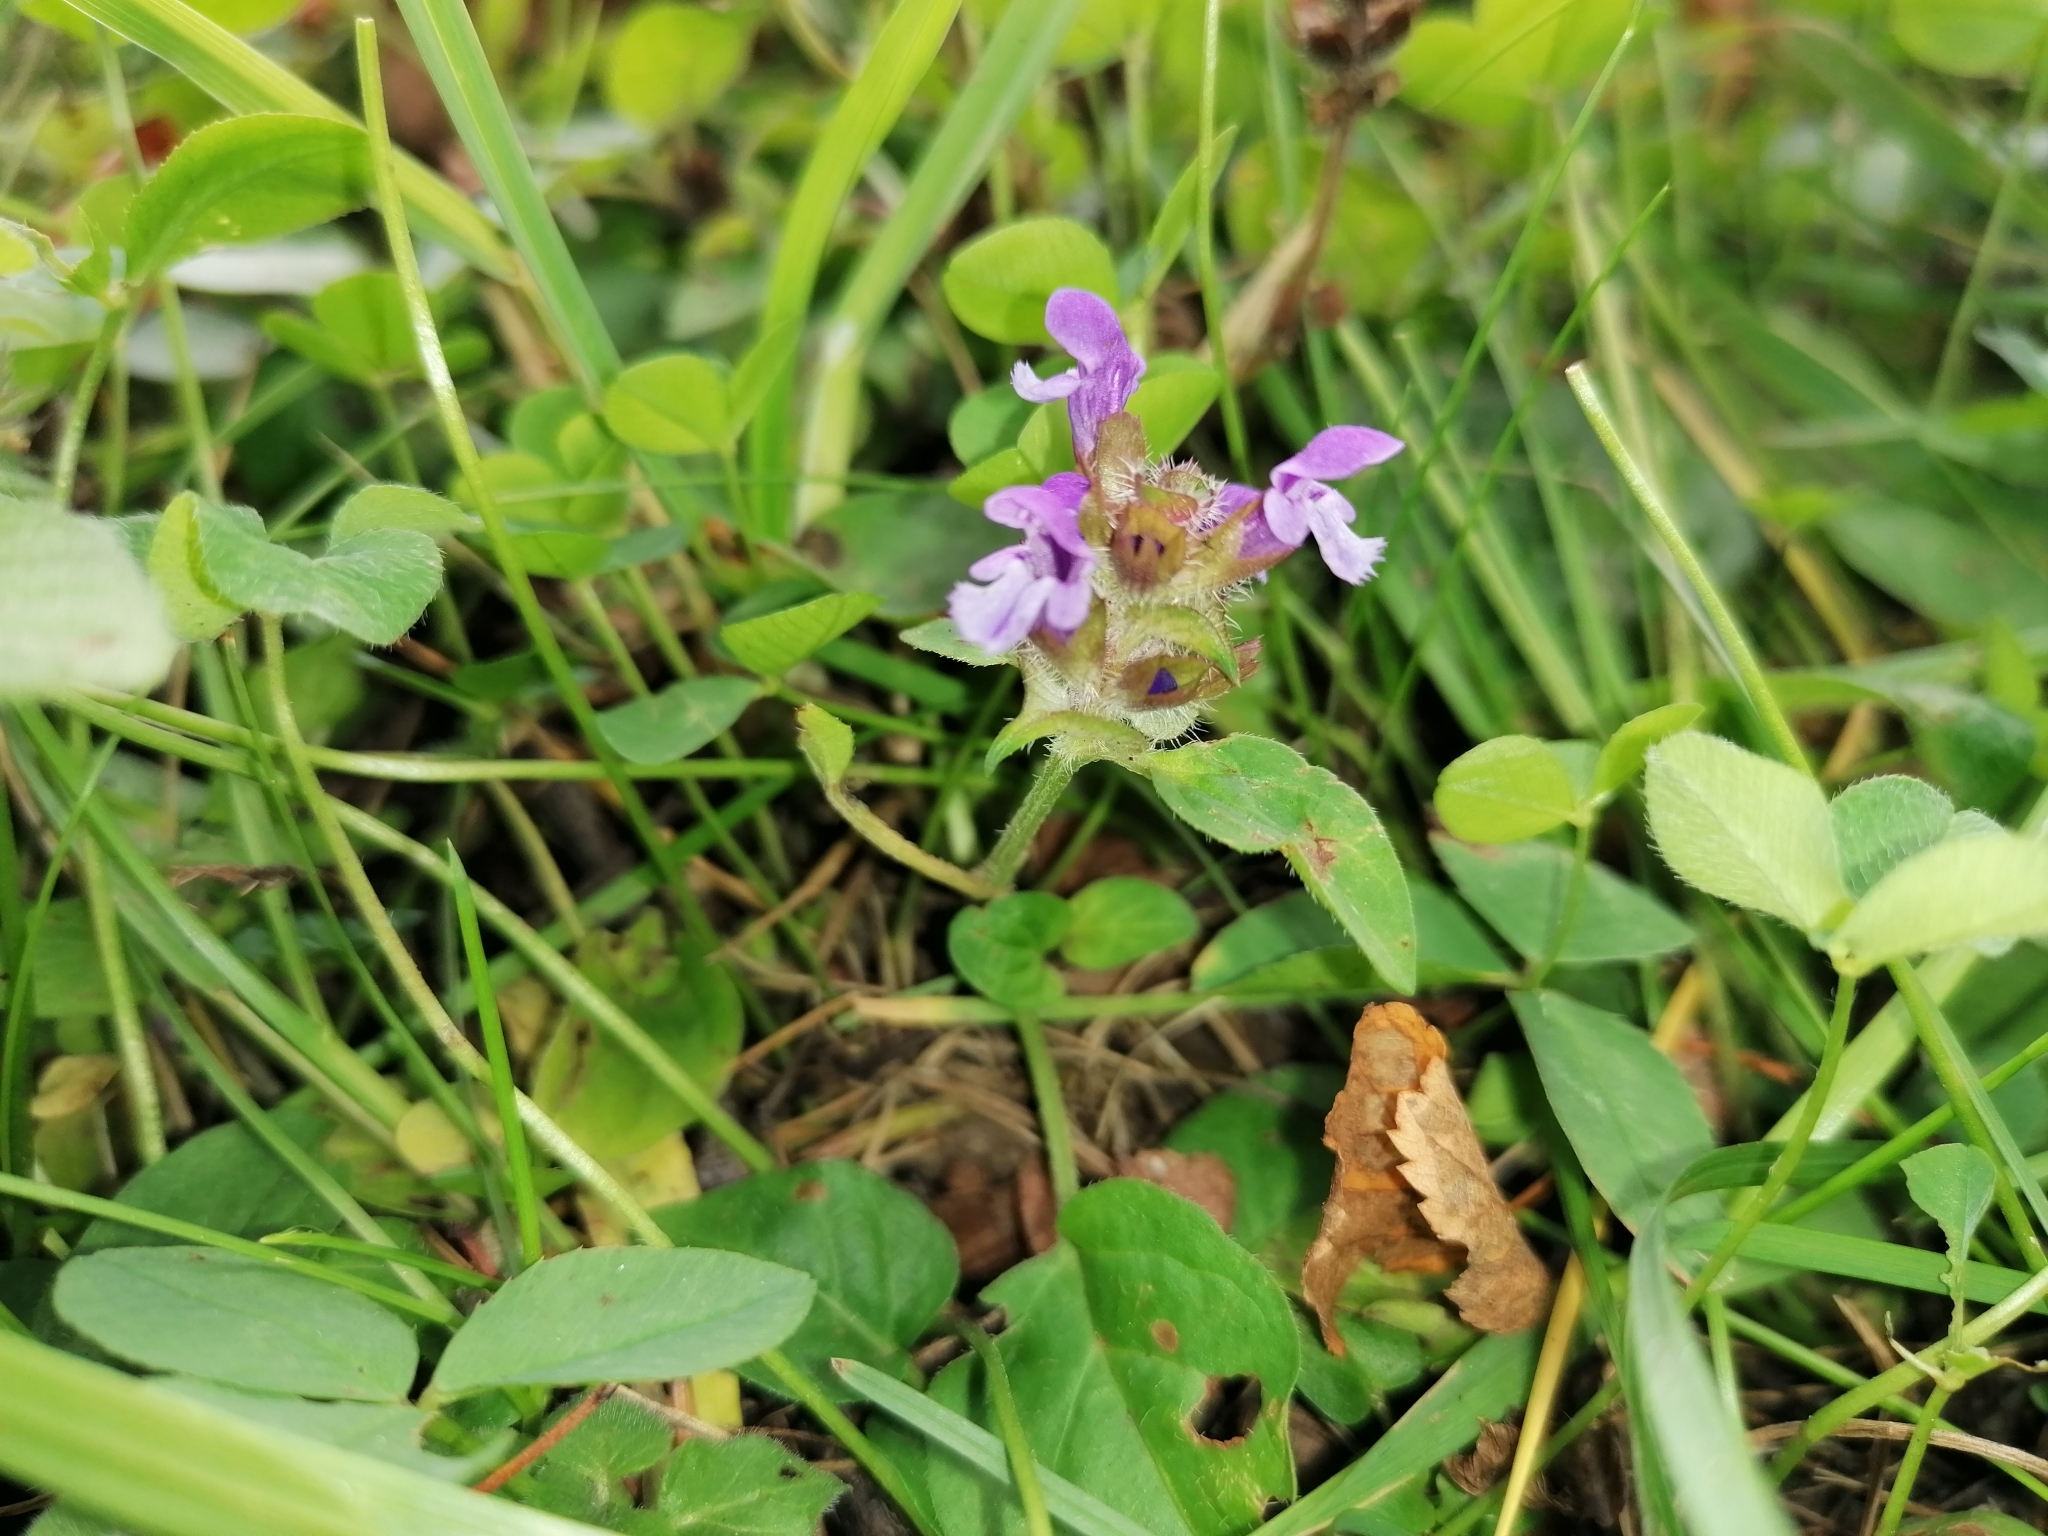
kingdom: Plantae
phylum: Tracheophyta
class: Magnoliopsida
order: Lamiales
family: Lamiaceae
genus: Prunella
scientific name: Prunella vulgaris
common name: Heal-all
